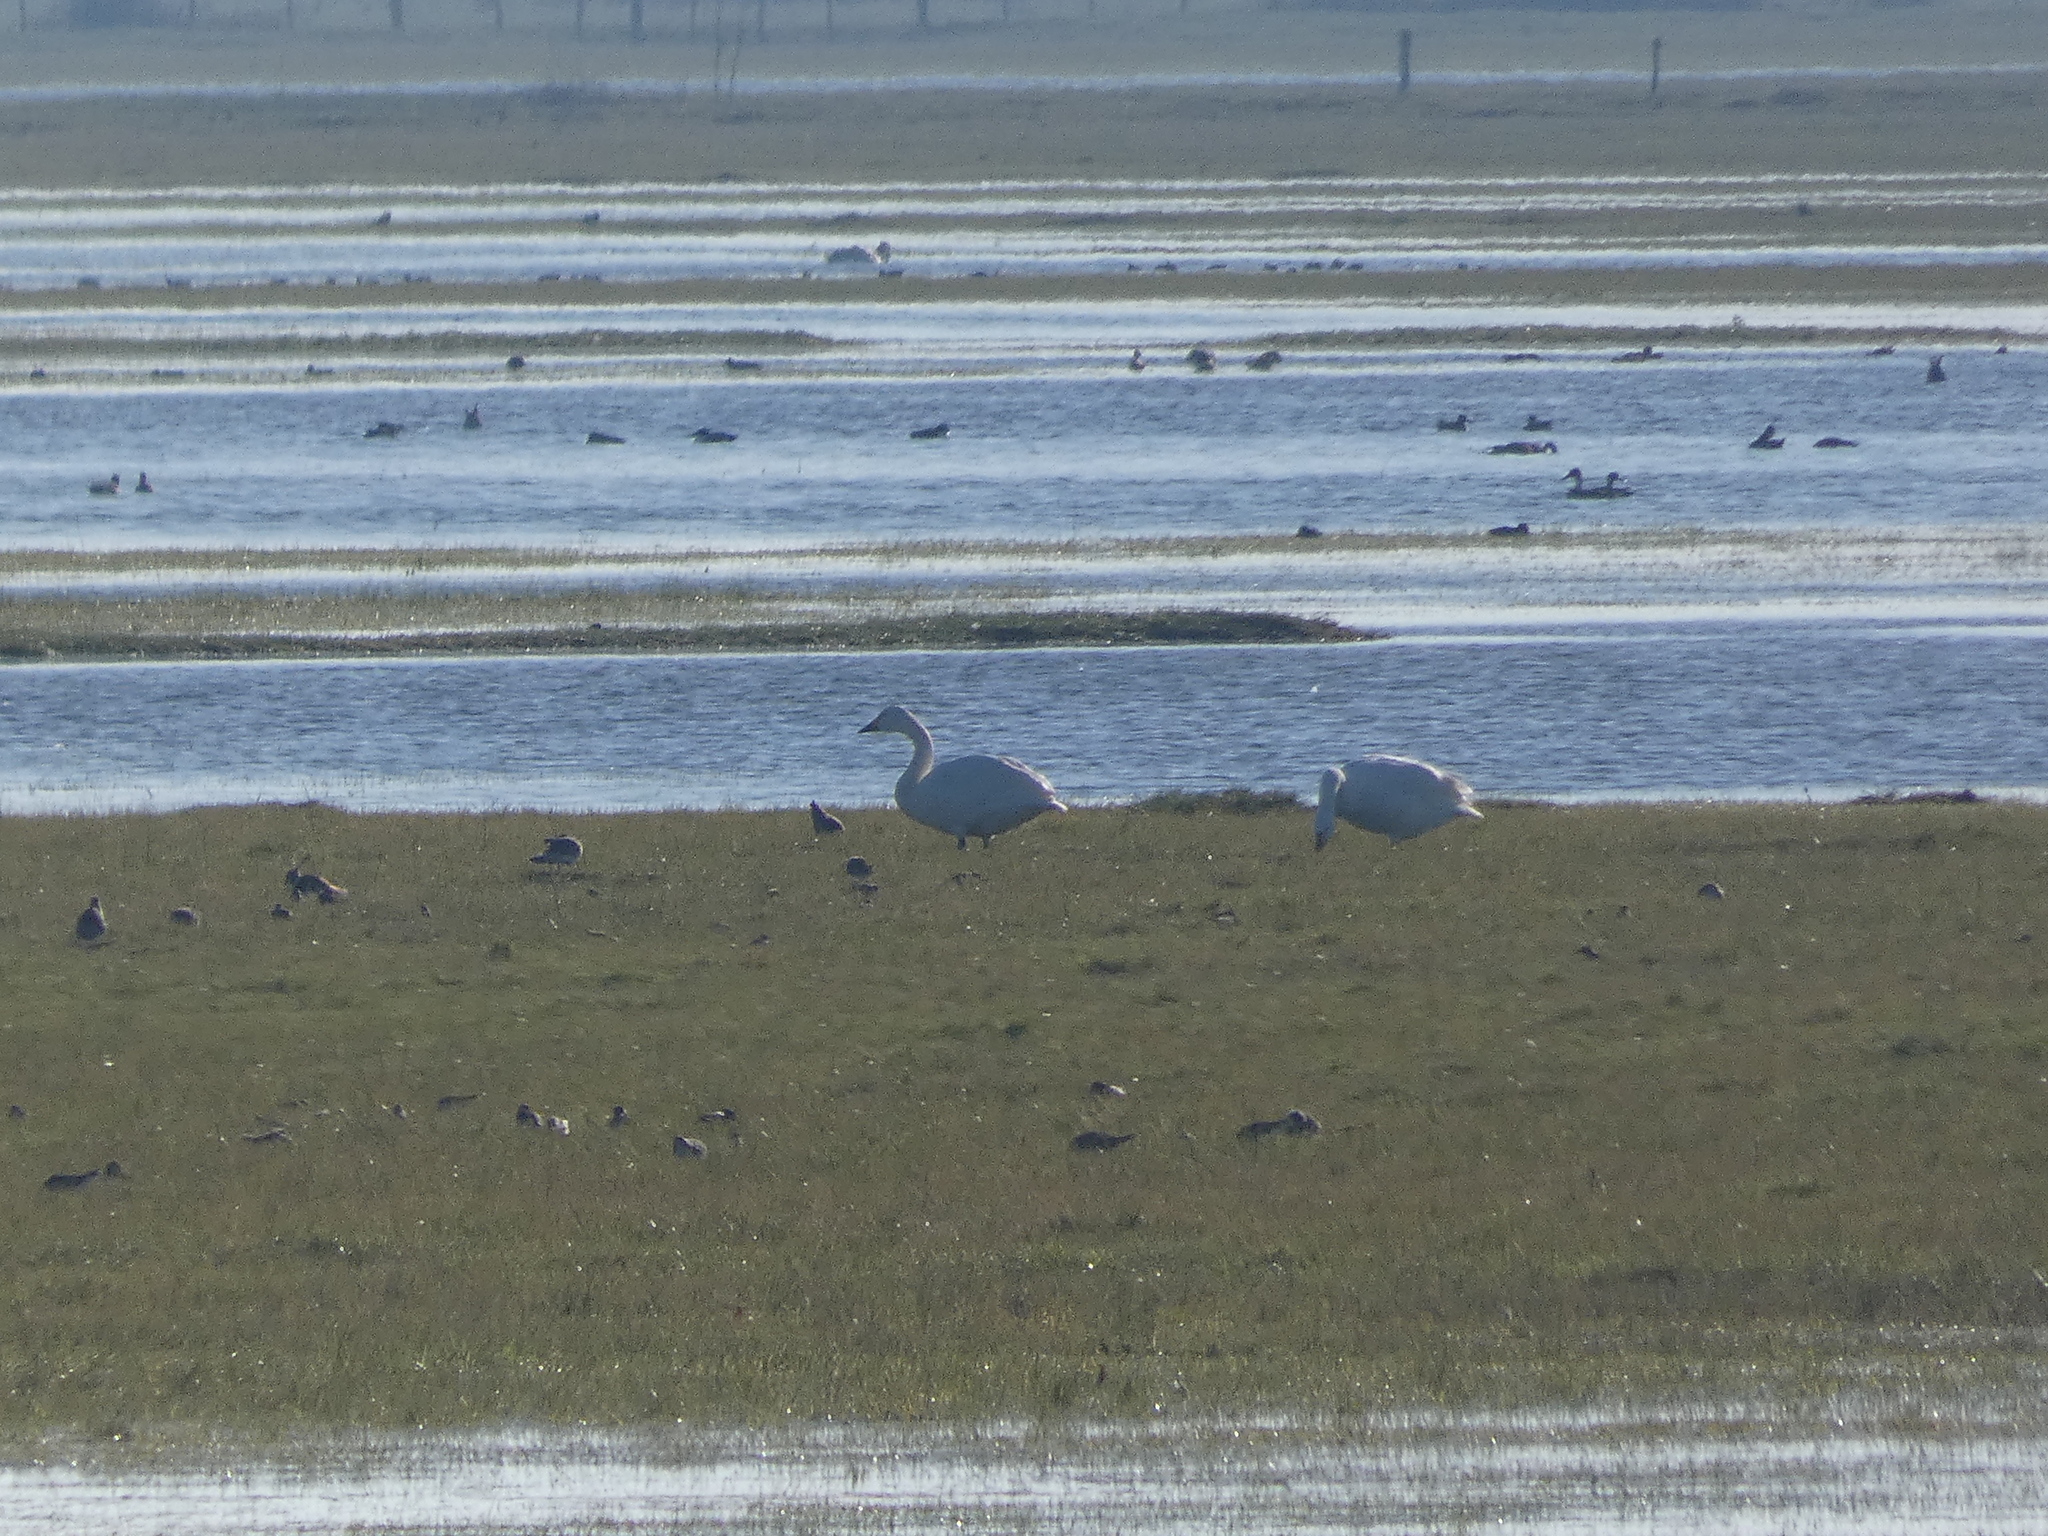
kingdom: Animalia
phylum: Chordata
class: Aves
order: Anseriformes
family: Anatidae
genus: Cygnus
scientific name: Cygnus columbianus
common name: Tundra swan
